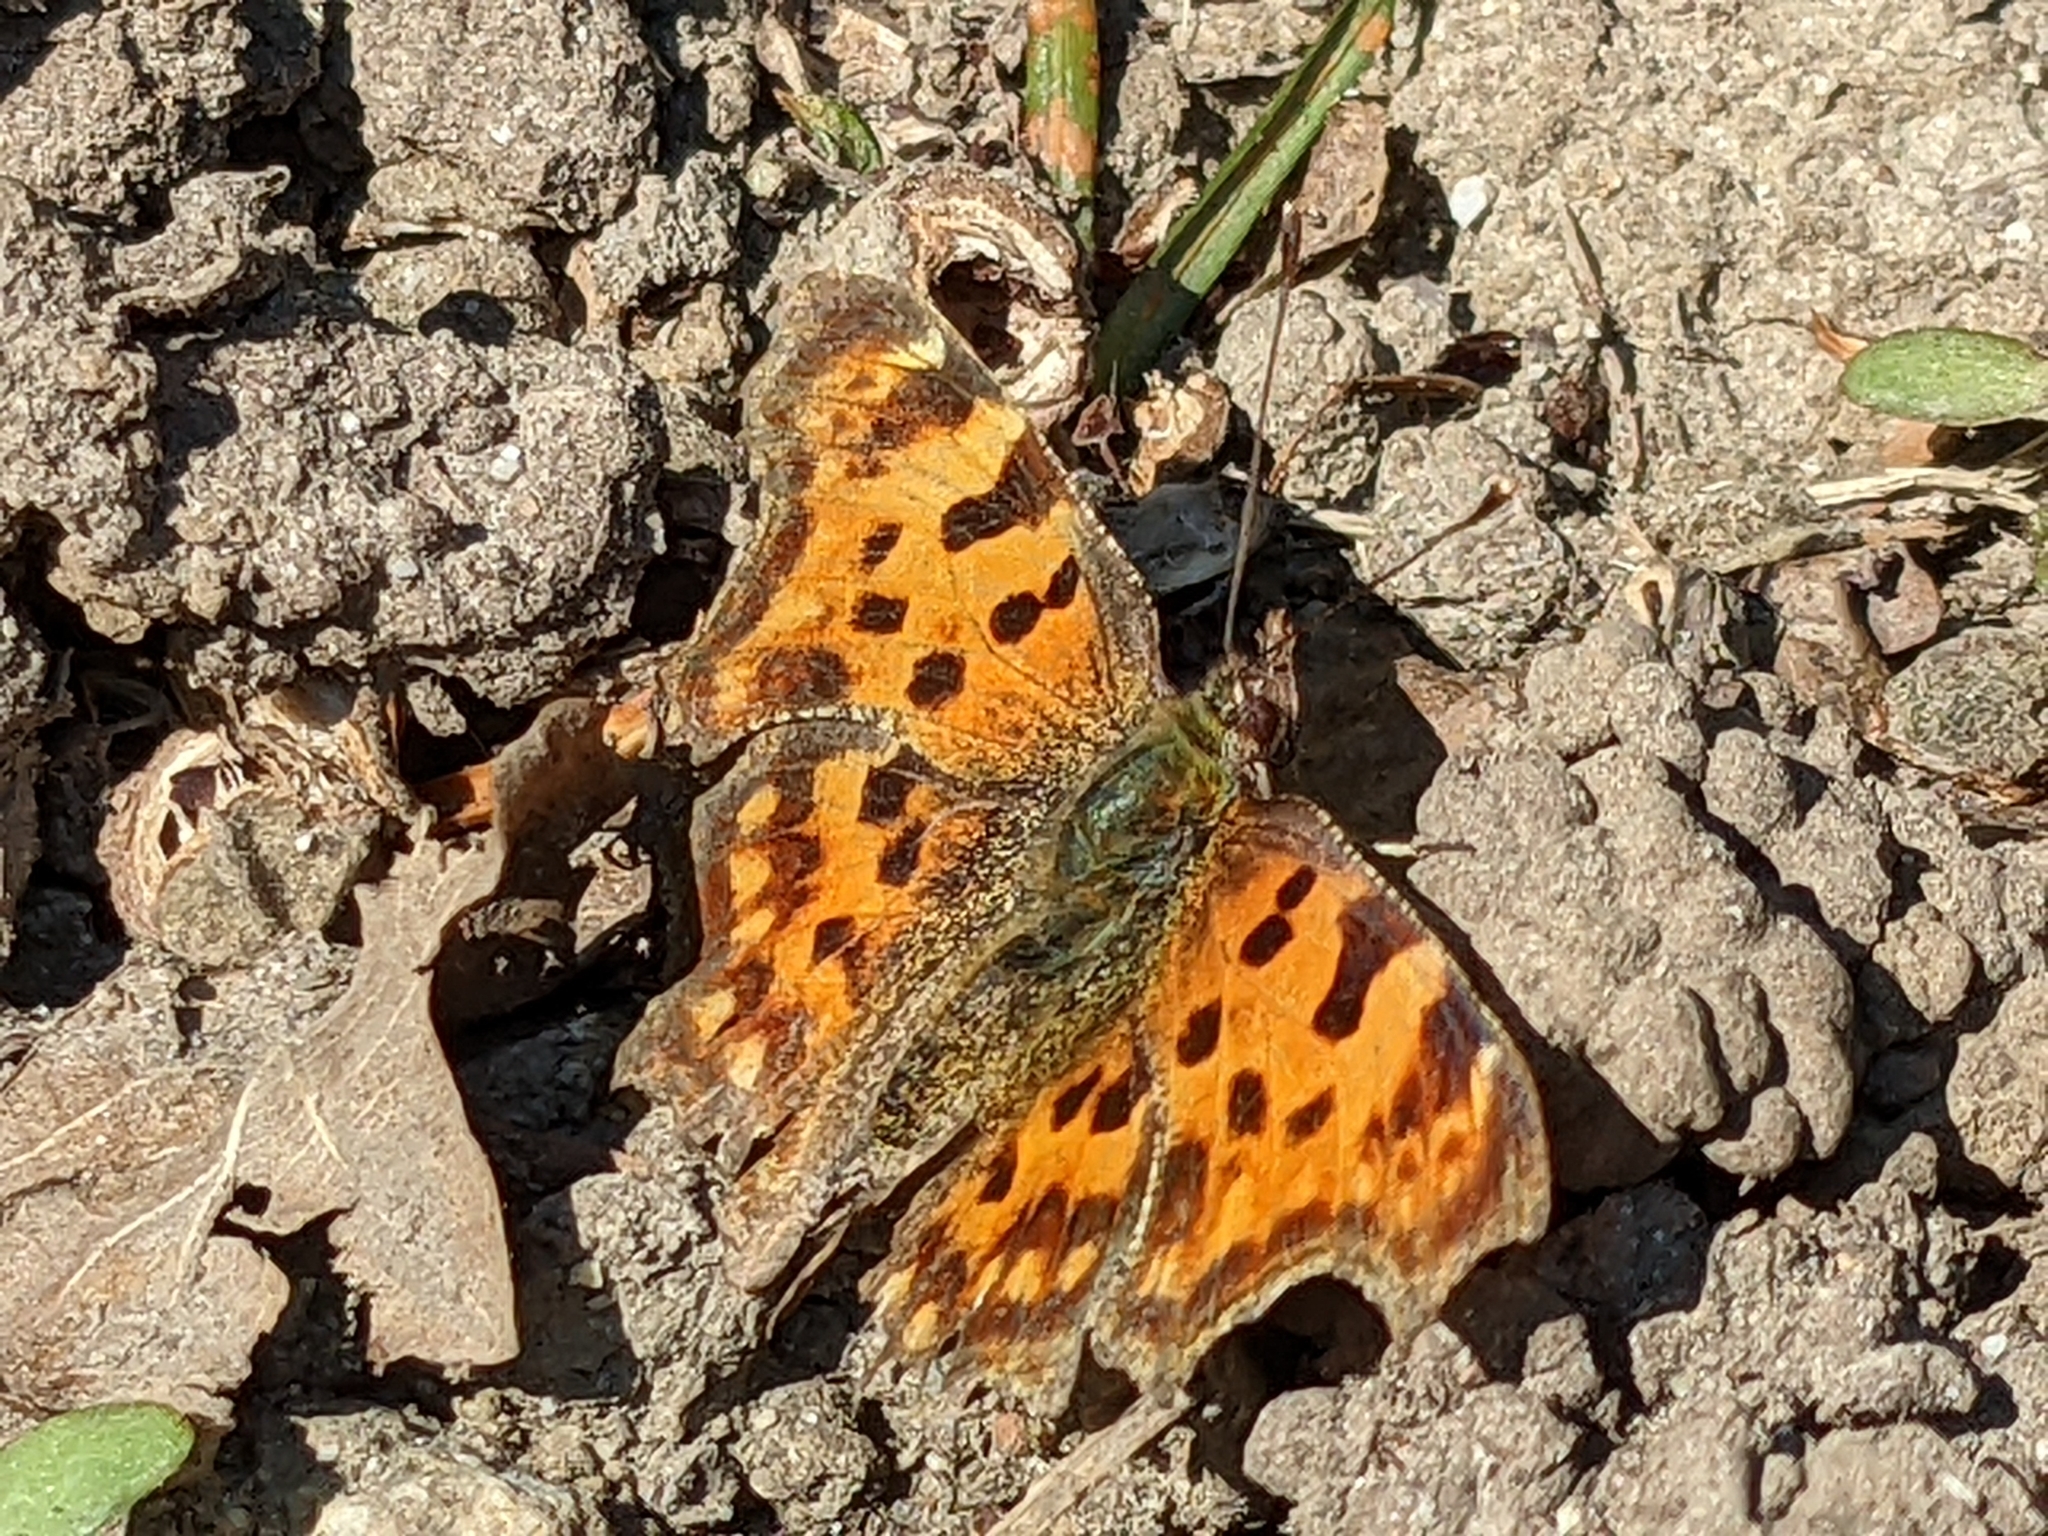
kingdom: Animalia
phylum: Arthropoda
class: Insecta
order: Lepidoptera
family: Nymphalidae
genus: Polygonia
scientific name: Polygonia c-album
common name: Comma
